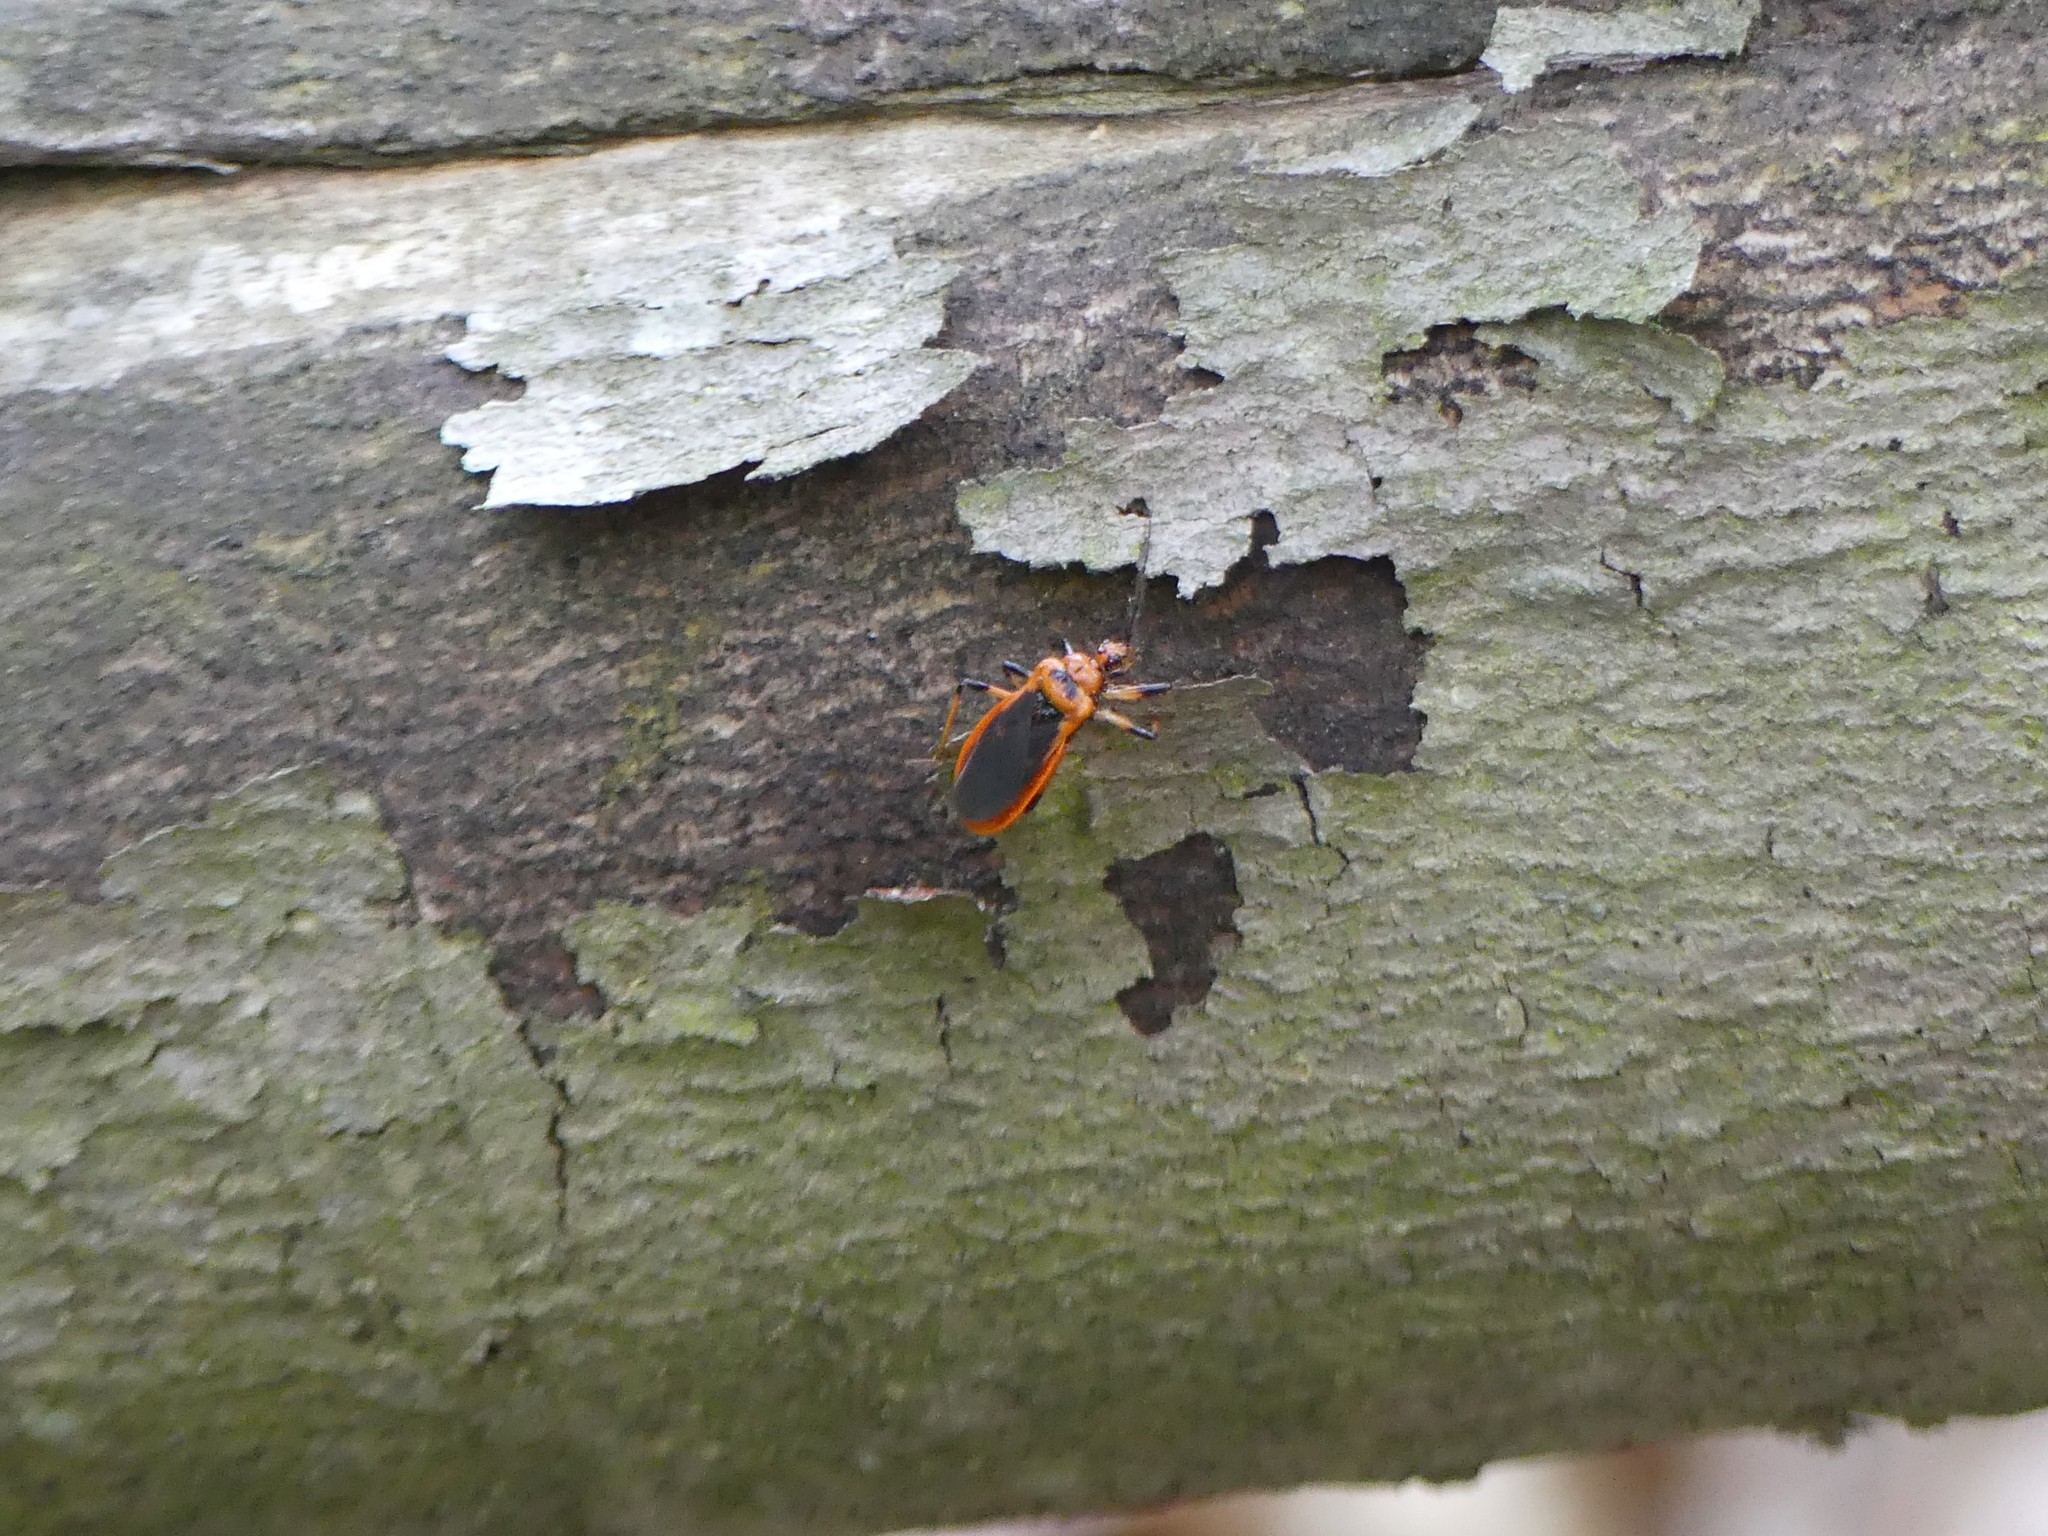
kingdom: Animalia
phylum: Arthropoda
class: Insecta
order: Hemiptera
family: Reduviidae
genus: Rhiginia
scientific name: Rhiginia cruciata
